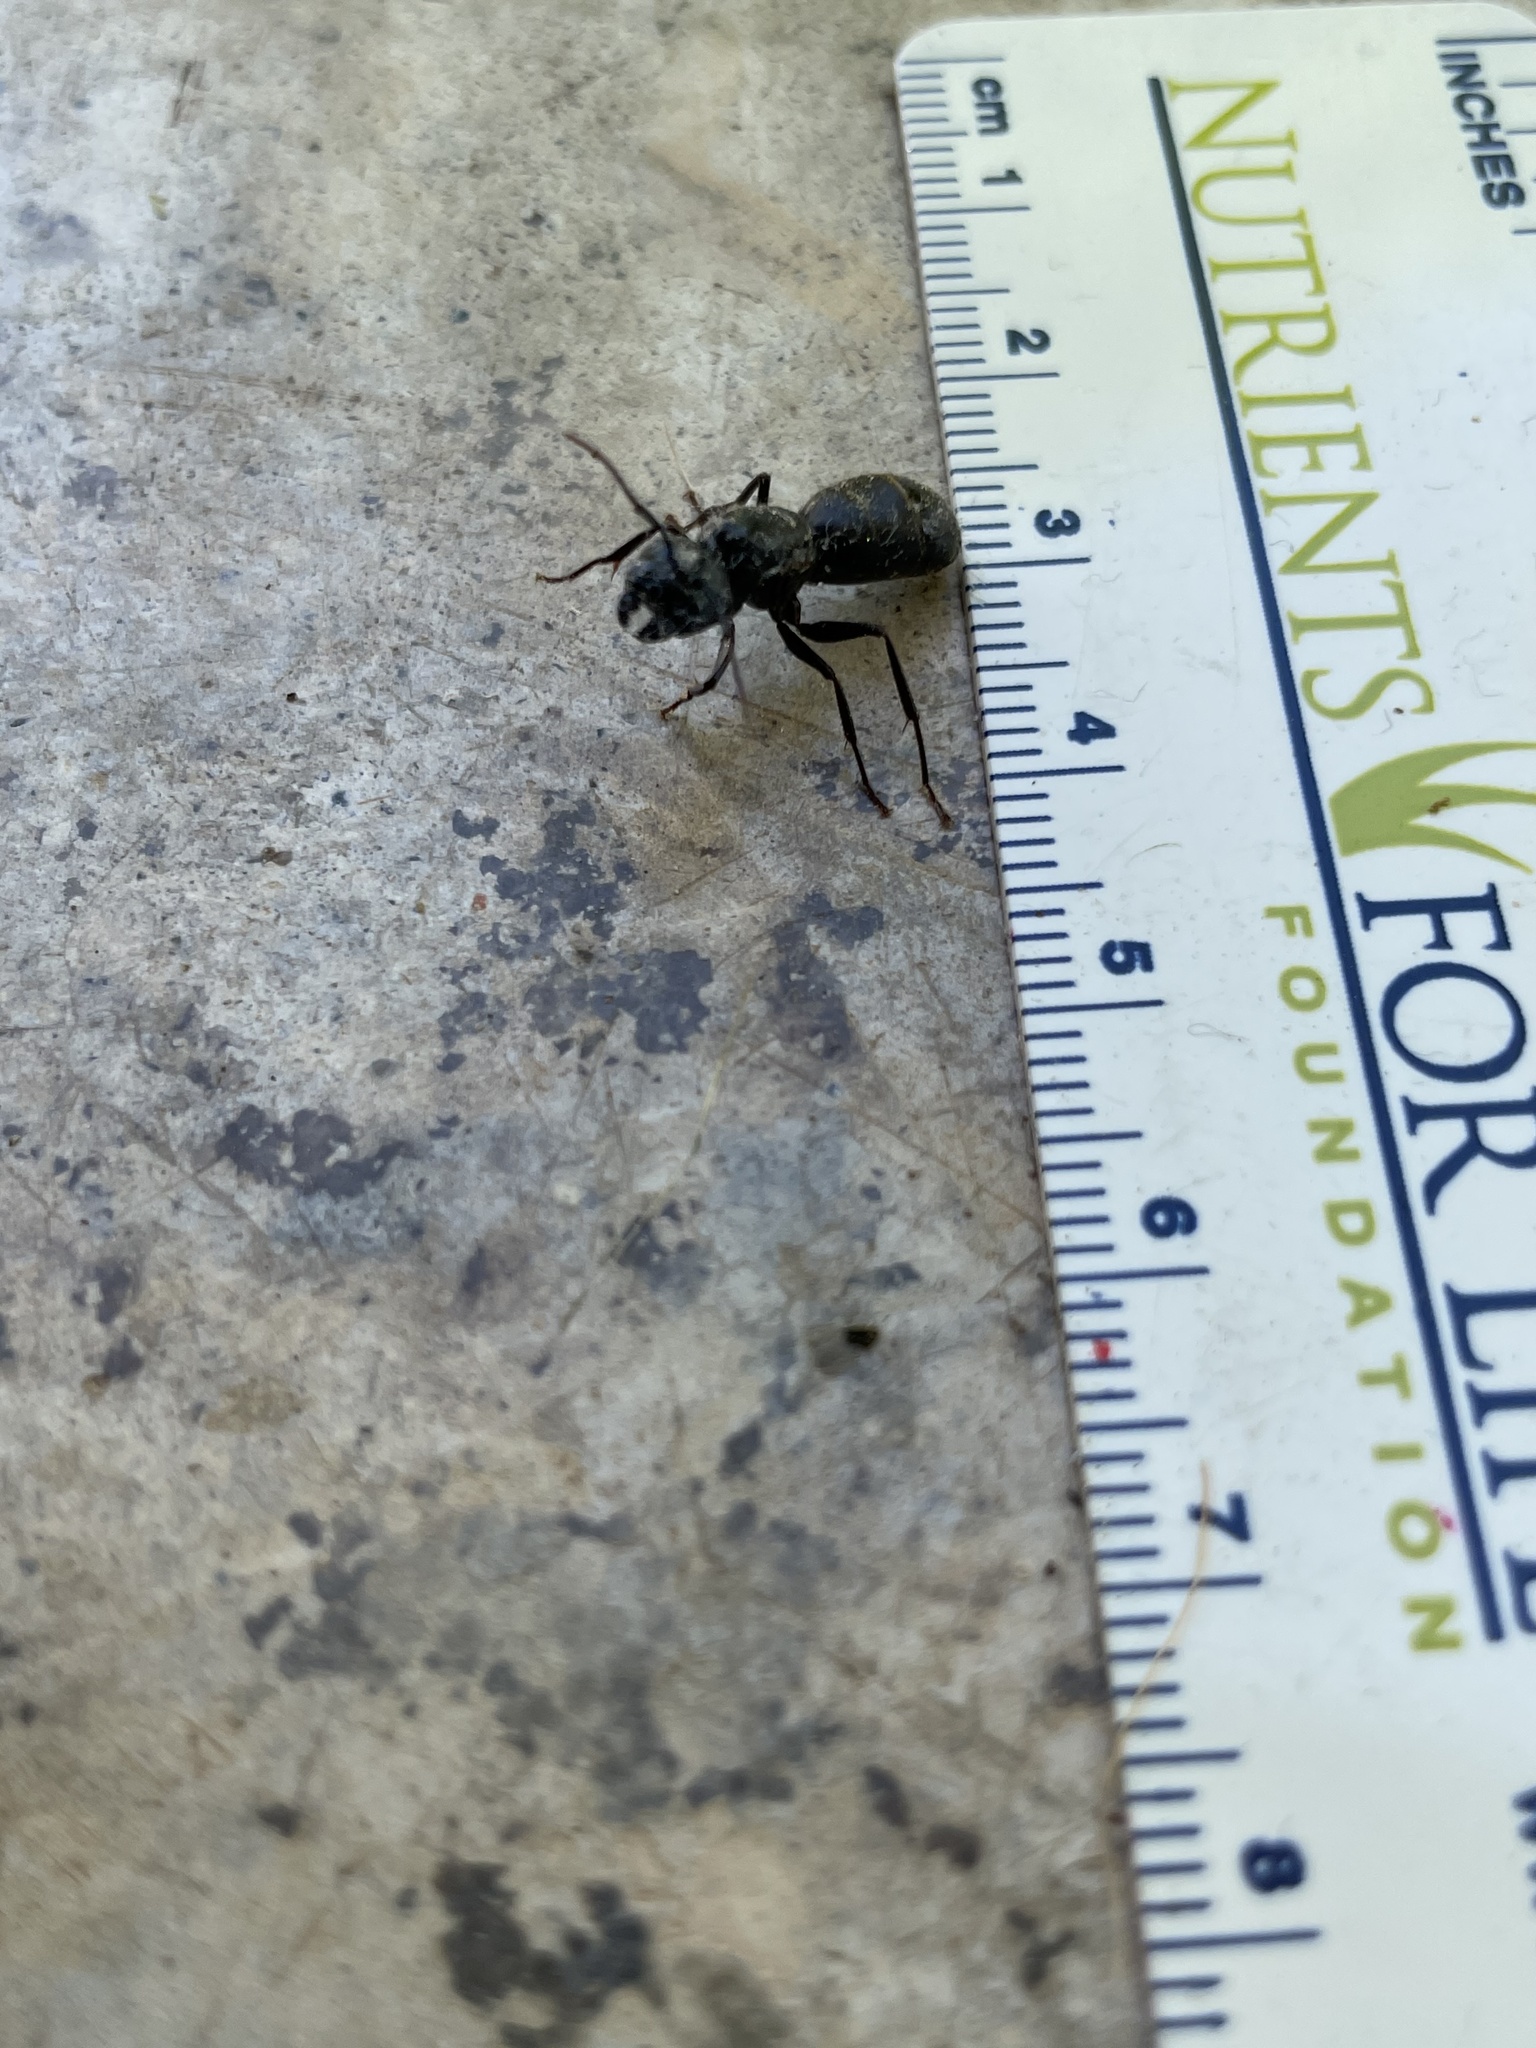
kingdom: Animalia
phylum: Arthropoda
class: Insecta
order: Hymenoptera
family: Formicidae
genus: Camponotus
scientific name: Camponotus pennsylvanicus
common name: Black carpenter ant
